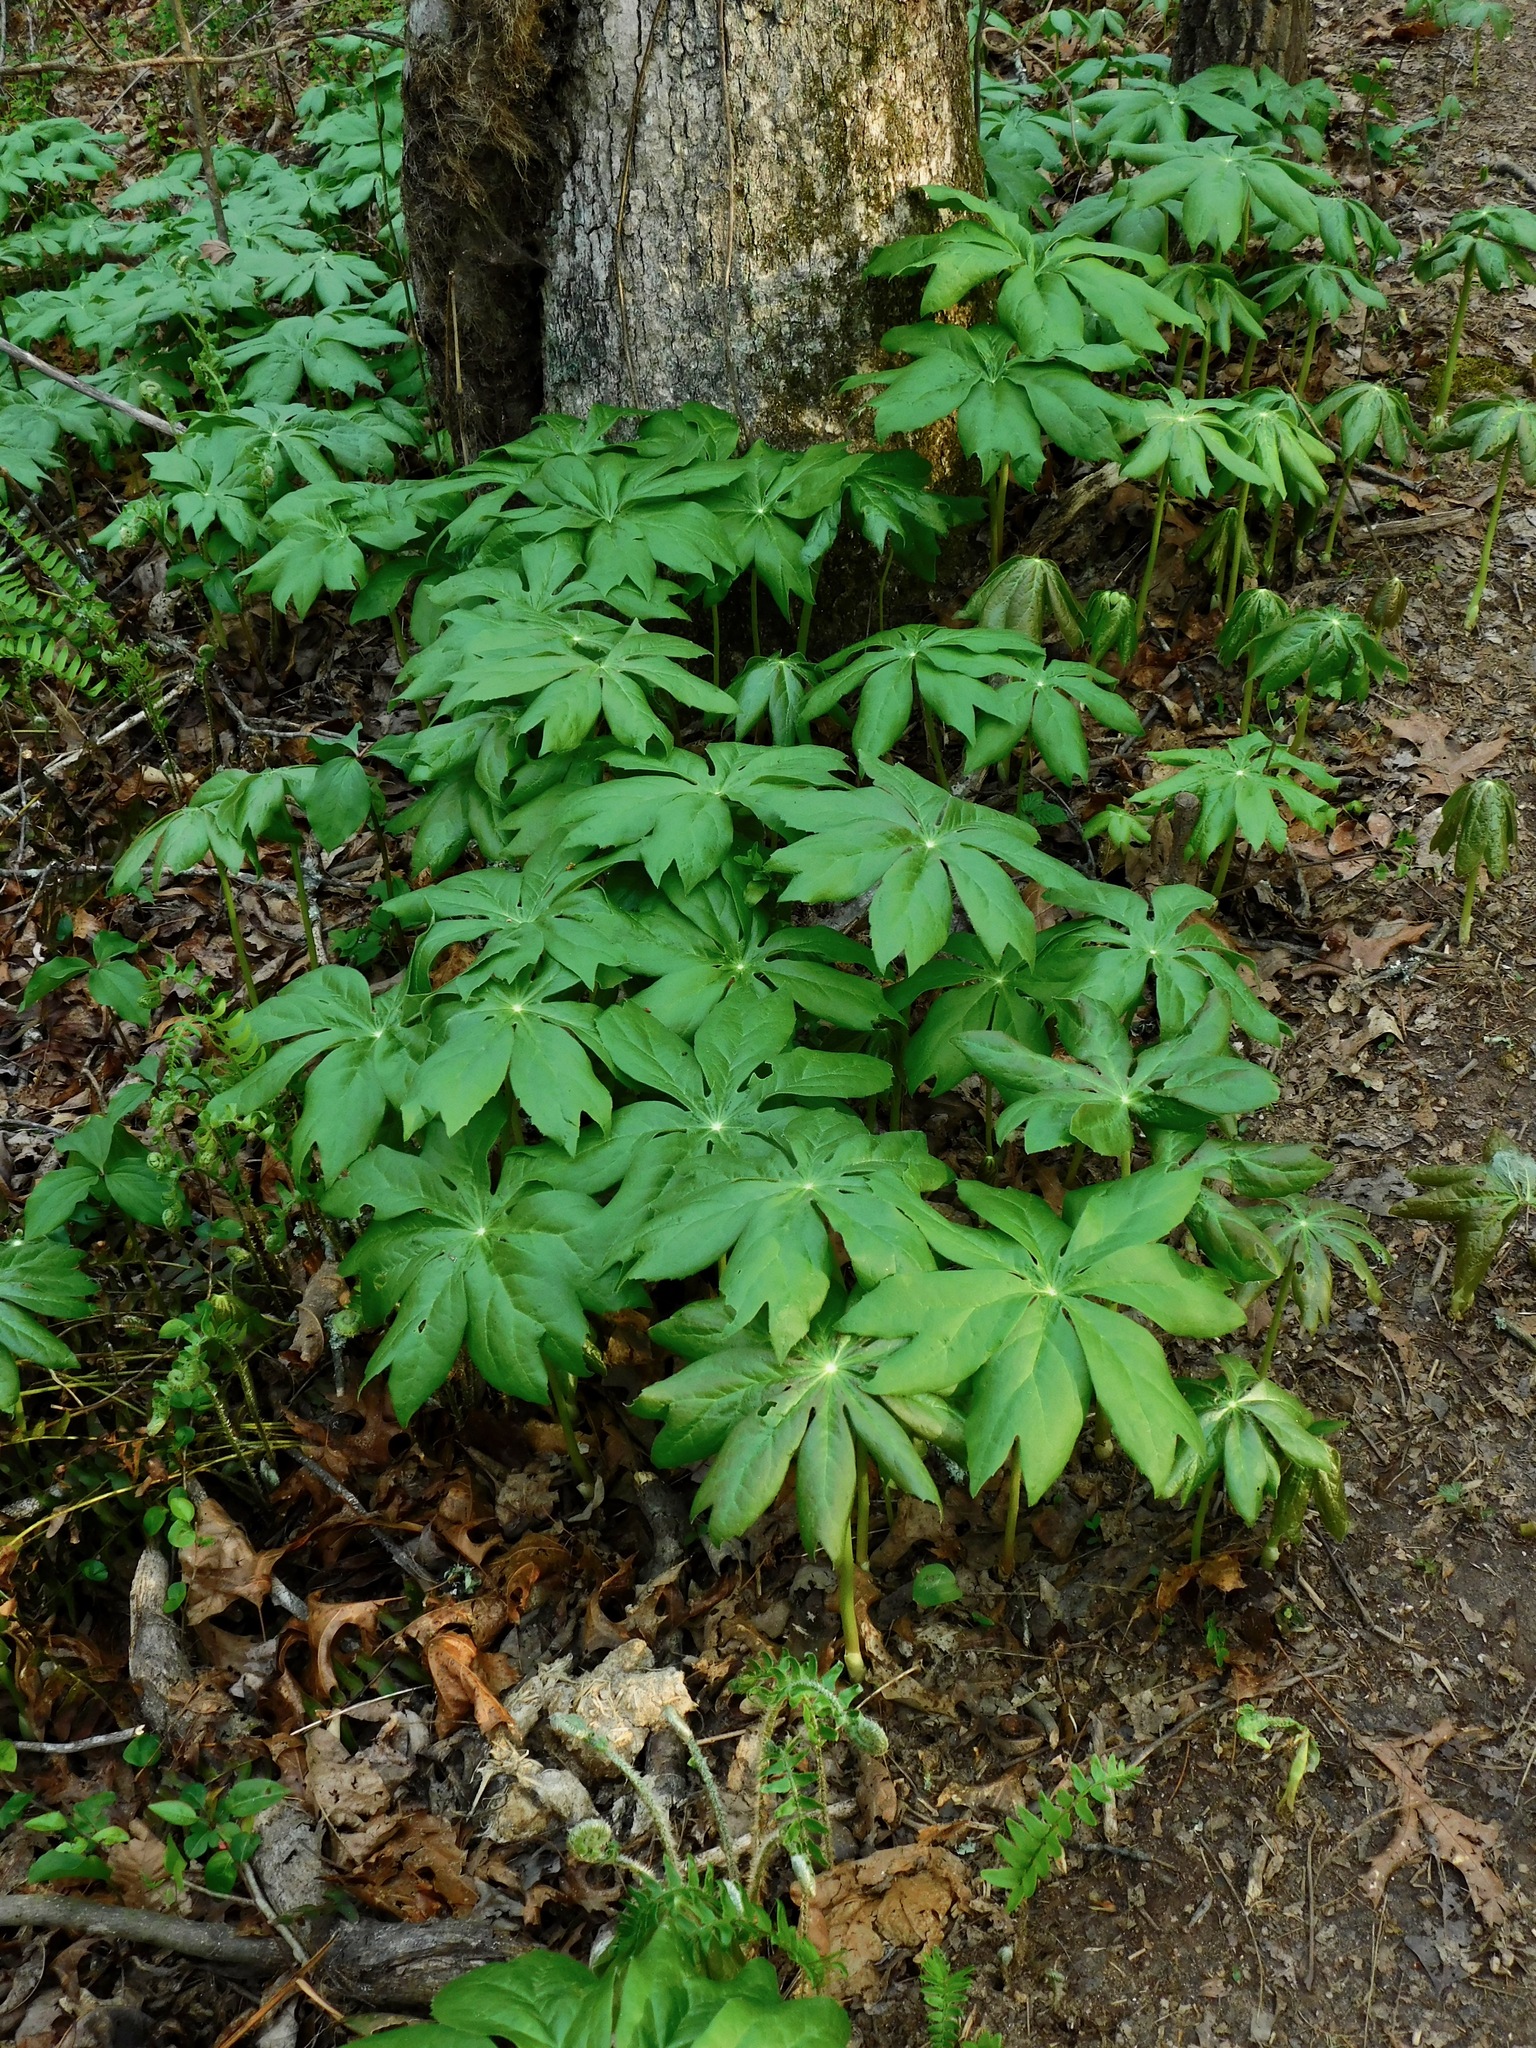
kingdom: Plantae
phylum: Tracheophyta
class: Magnoliopsida
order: Ranunculales
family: Berberidaceae
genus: Podophyllum
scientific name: Podophyllum peltatum
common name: Wild mandrake
